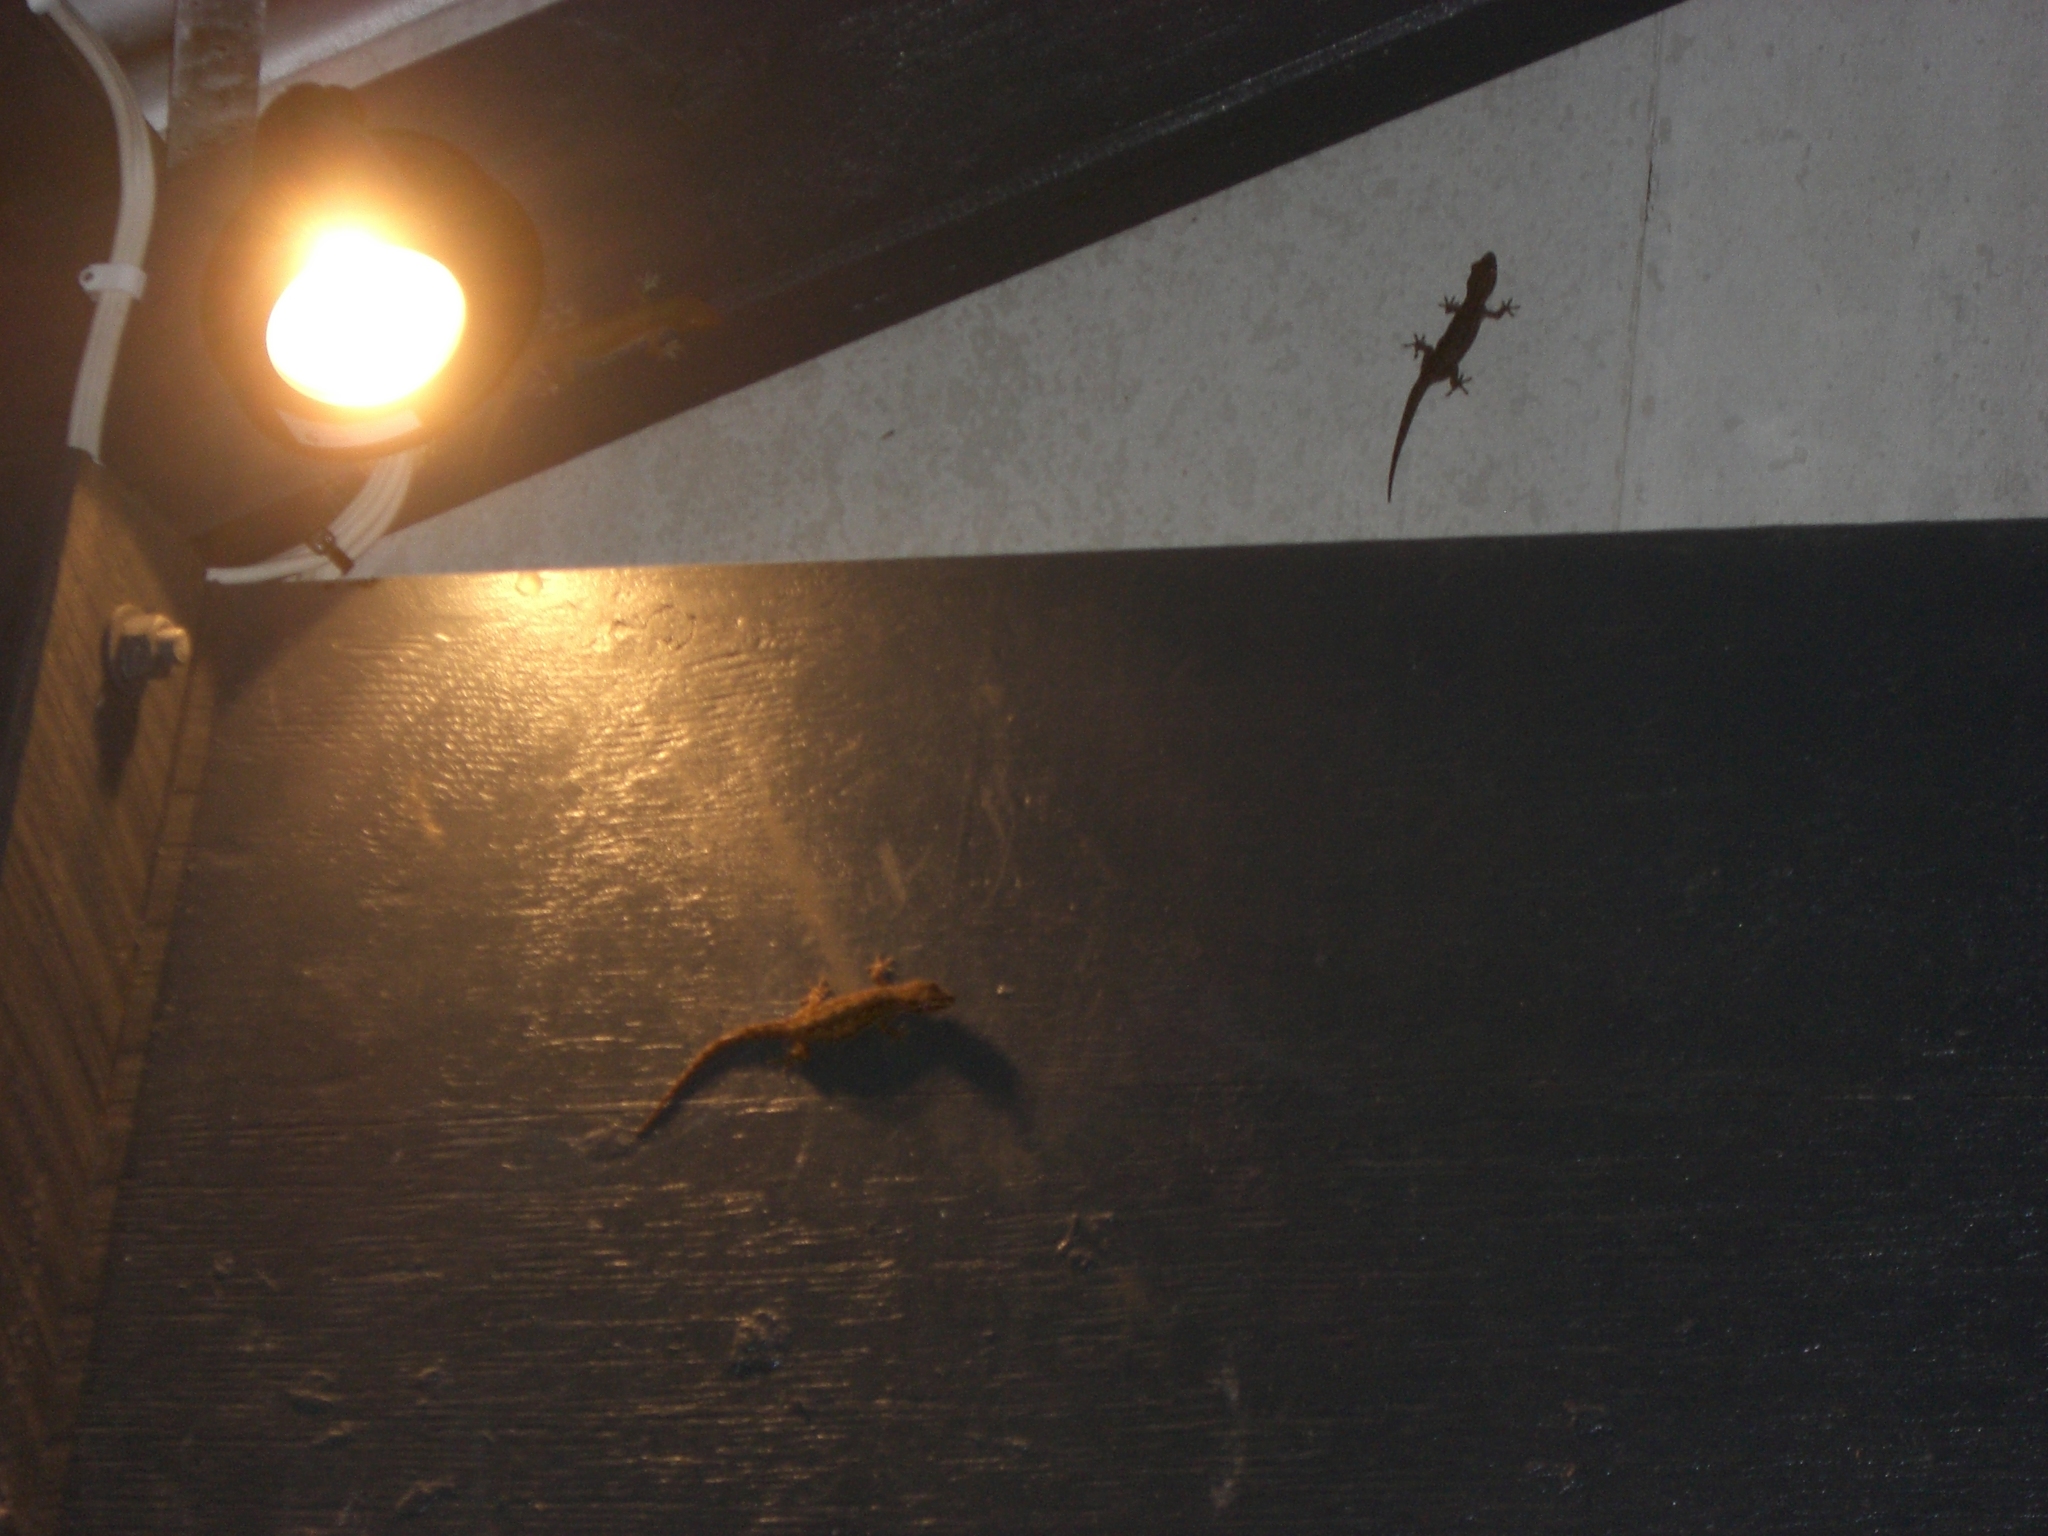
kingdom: Animalia
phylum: Chordata
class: Squamata
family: Gekkonidae
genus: Hemidactylus
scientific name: Hemidactylus frenatus
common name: Common house gecko
